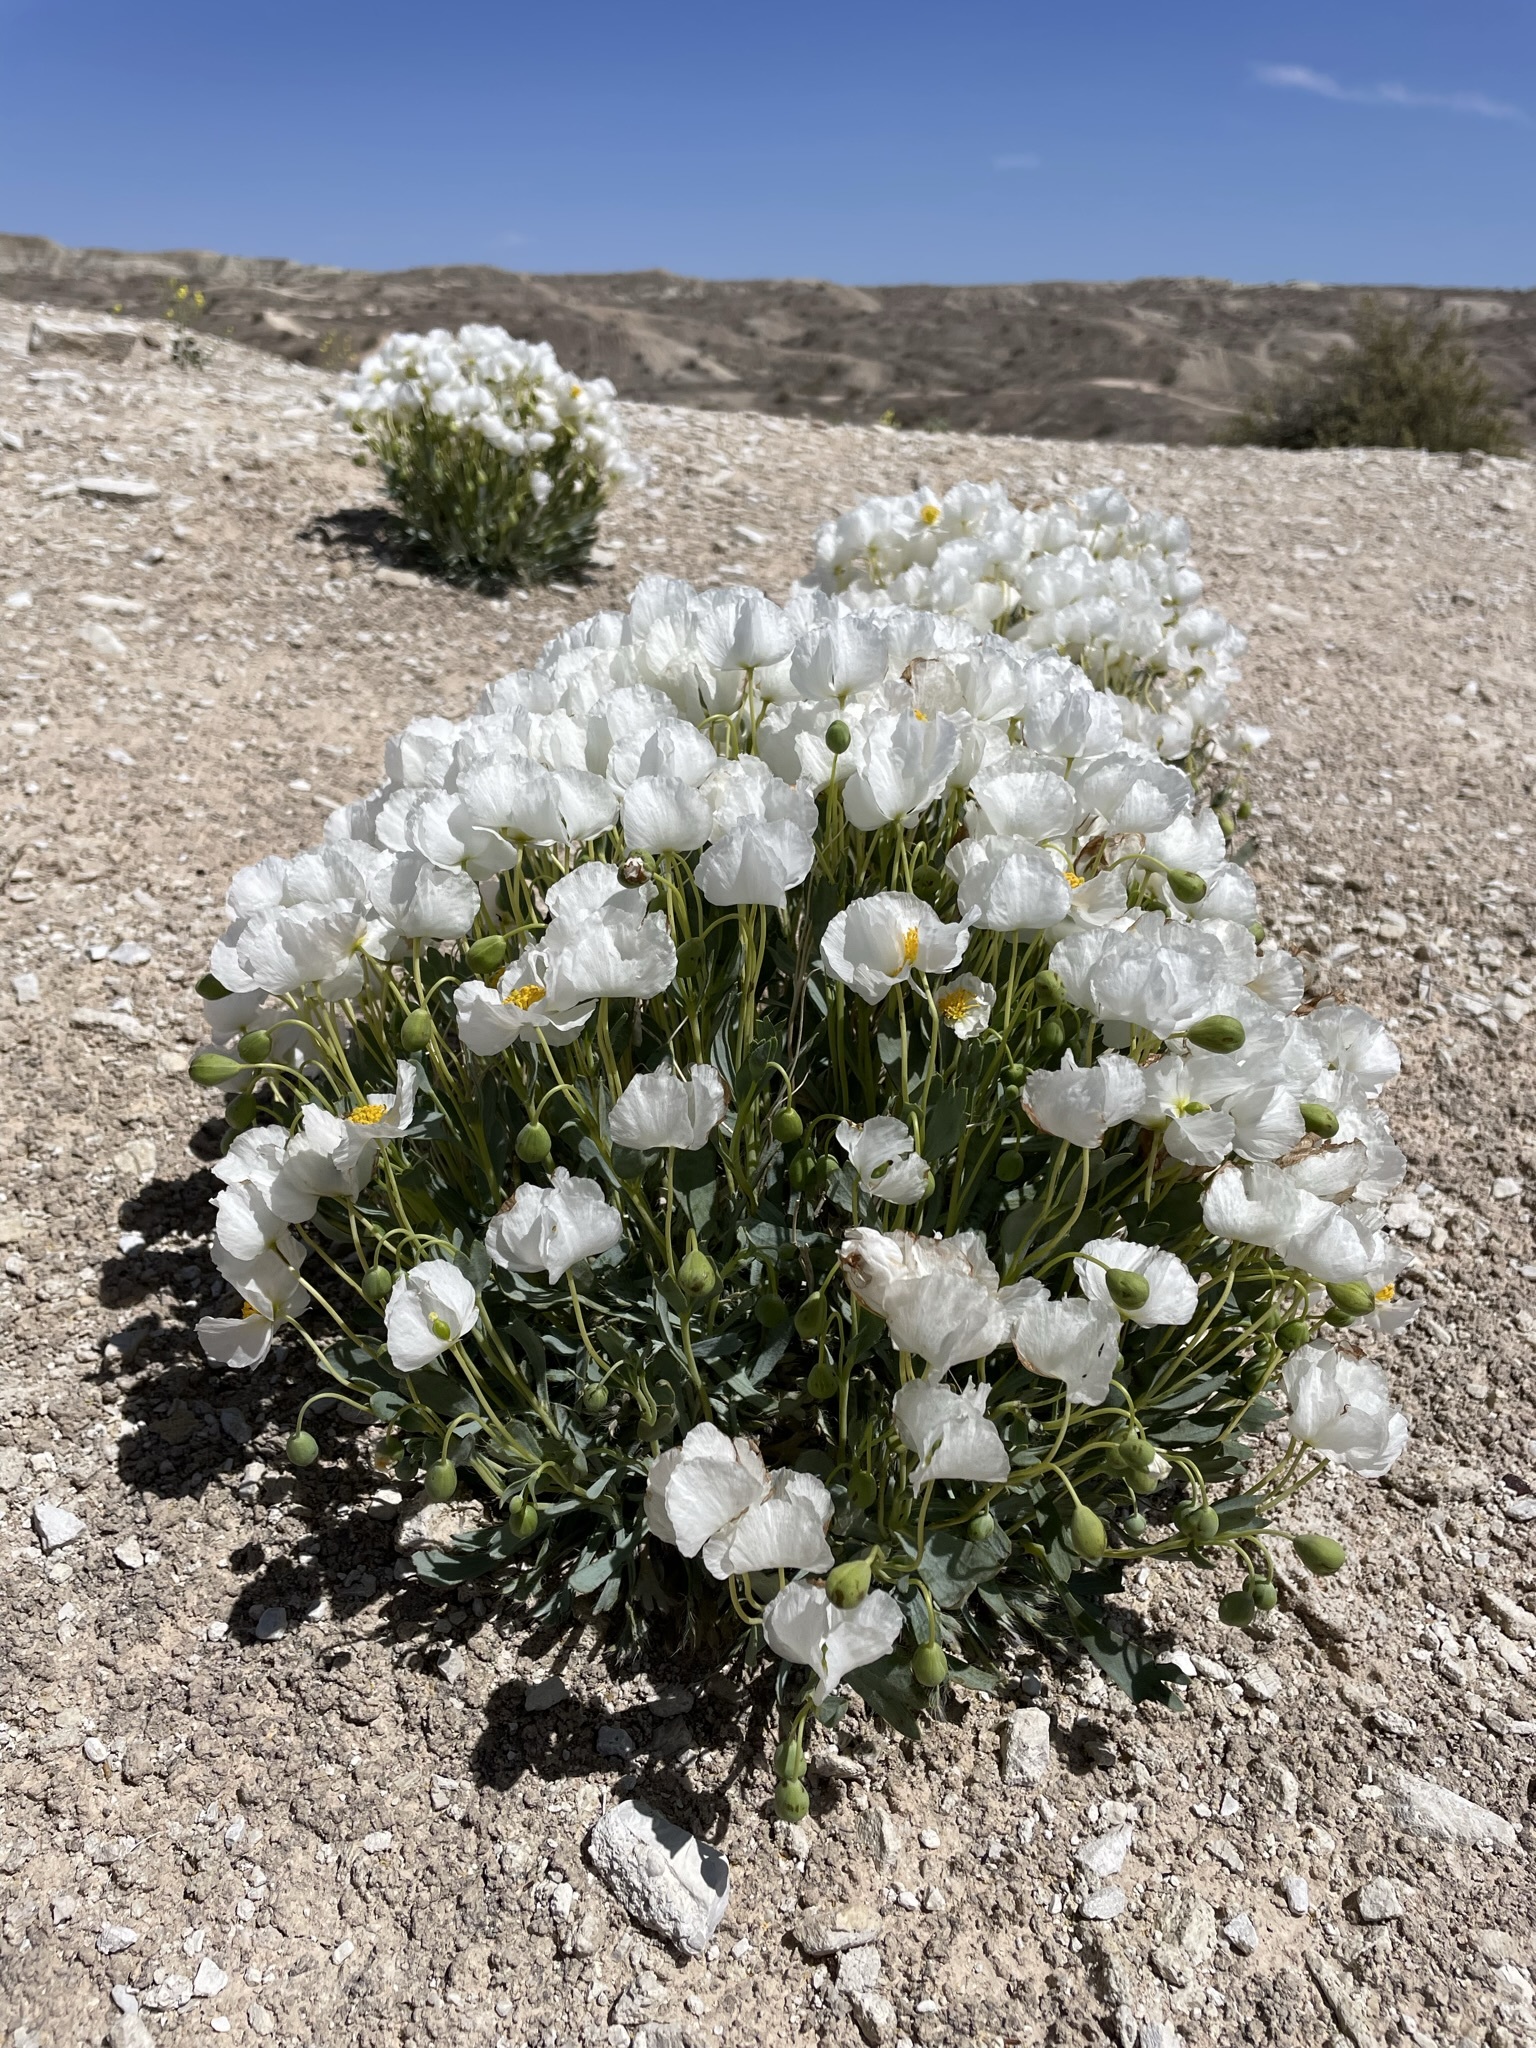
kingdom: Plantae
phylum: Tracheophyta
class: Magnoliopsida
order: Ranunculales
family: Papaveraceae
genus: Arctomecon
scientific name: Arctomecon humilis
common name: Dwarf bear-poppy
